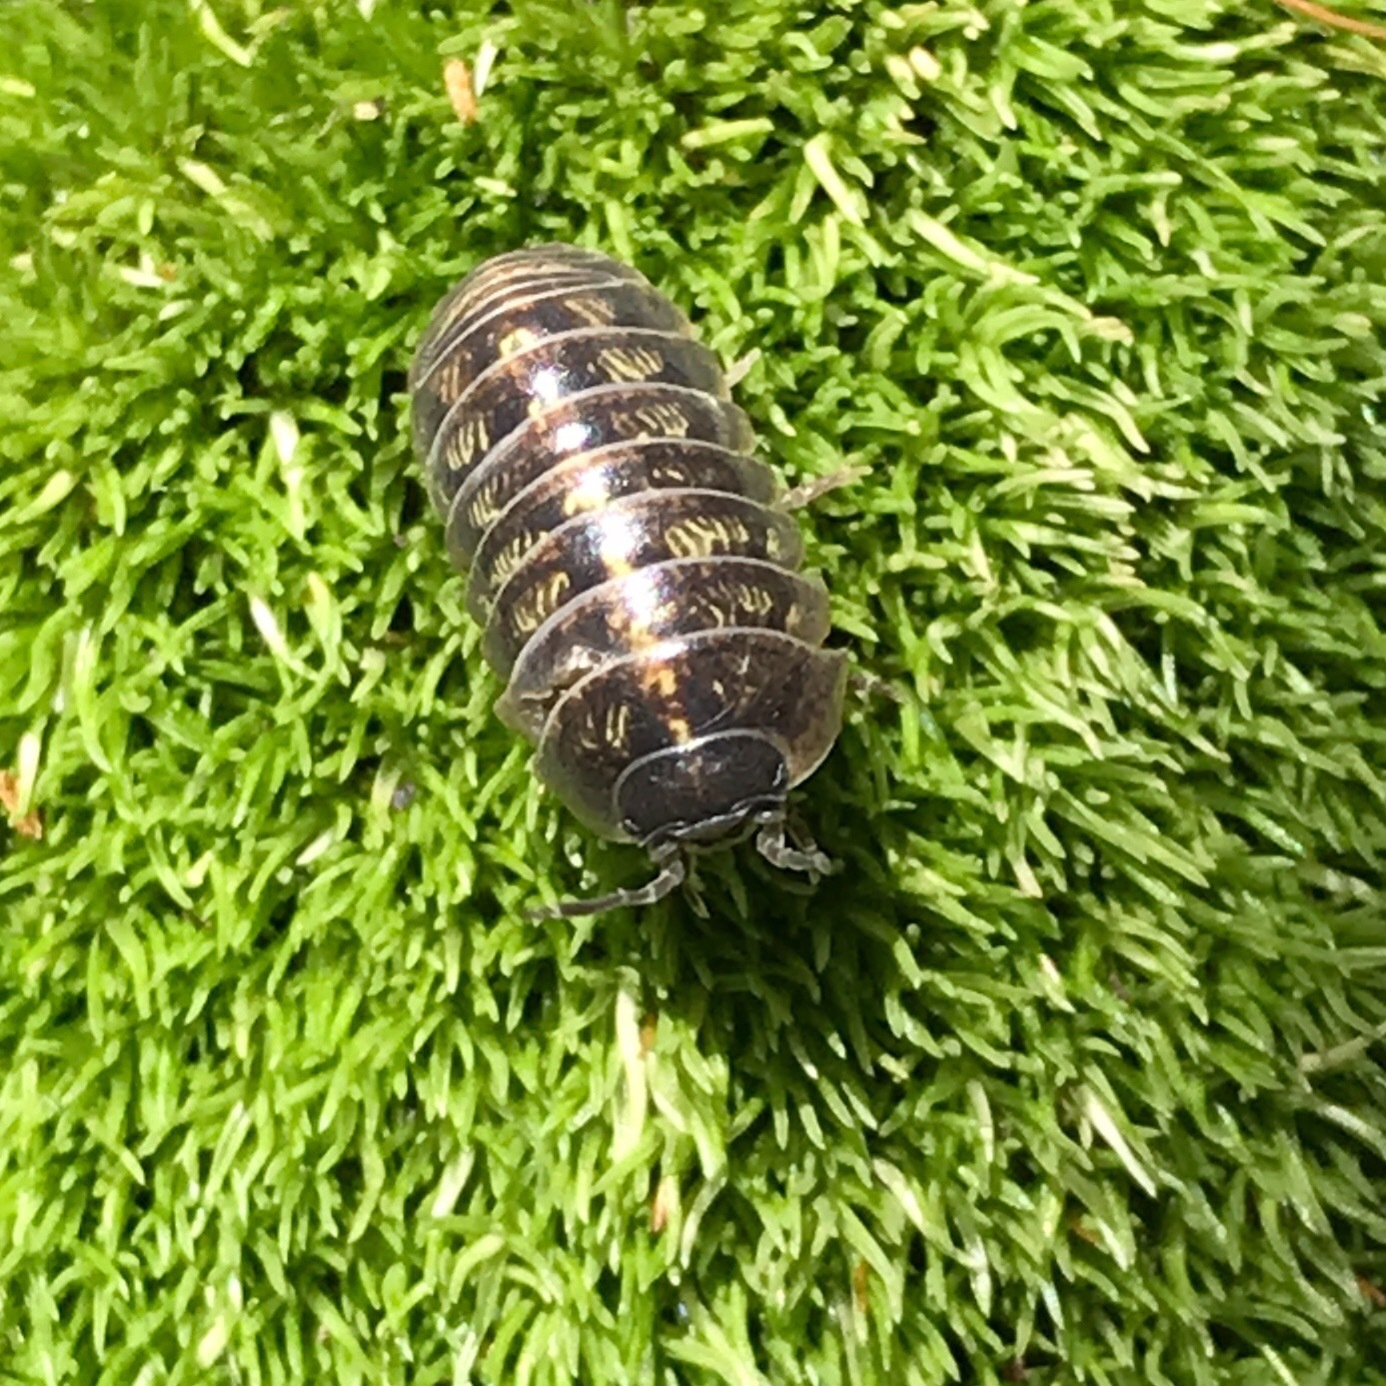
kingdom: Animalia
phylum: Arthropoda
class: Malacostraca
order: Isopoda
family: Armadillidiidae
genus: Armadillidium
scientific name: Armadillidium vulgare
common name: Common pill woodlouse
